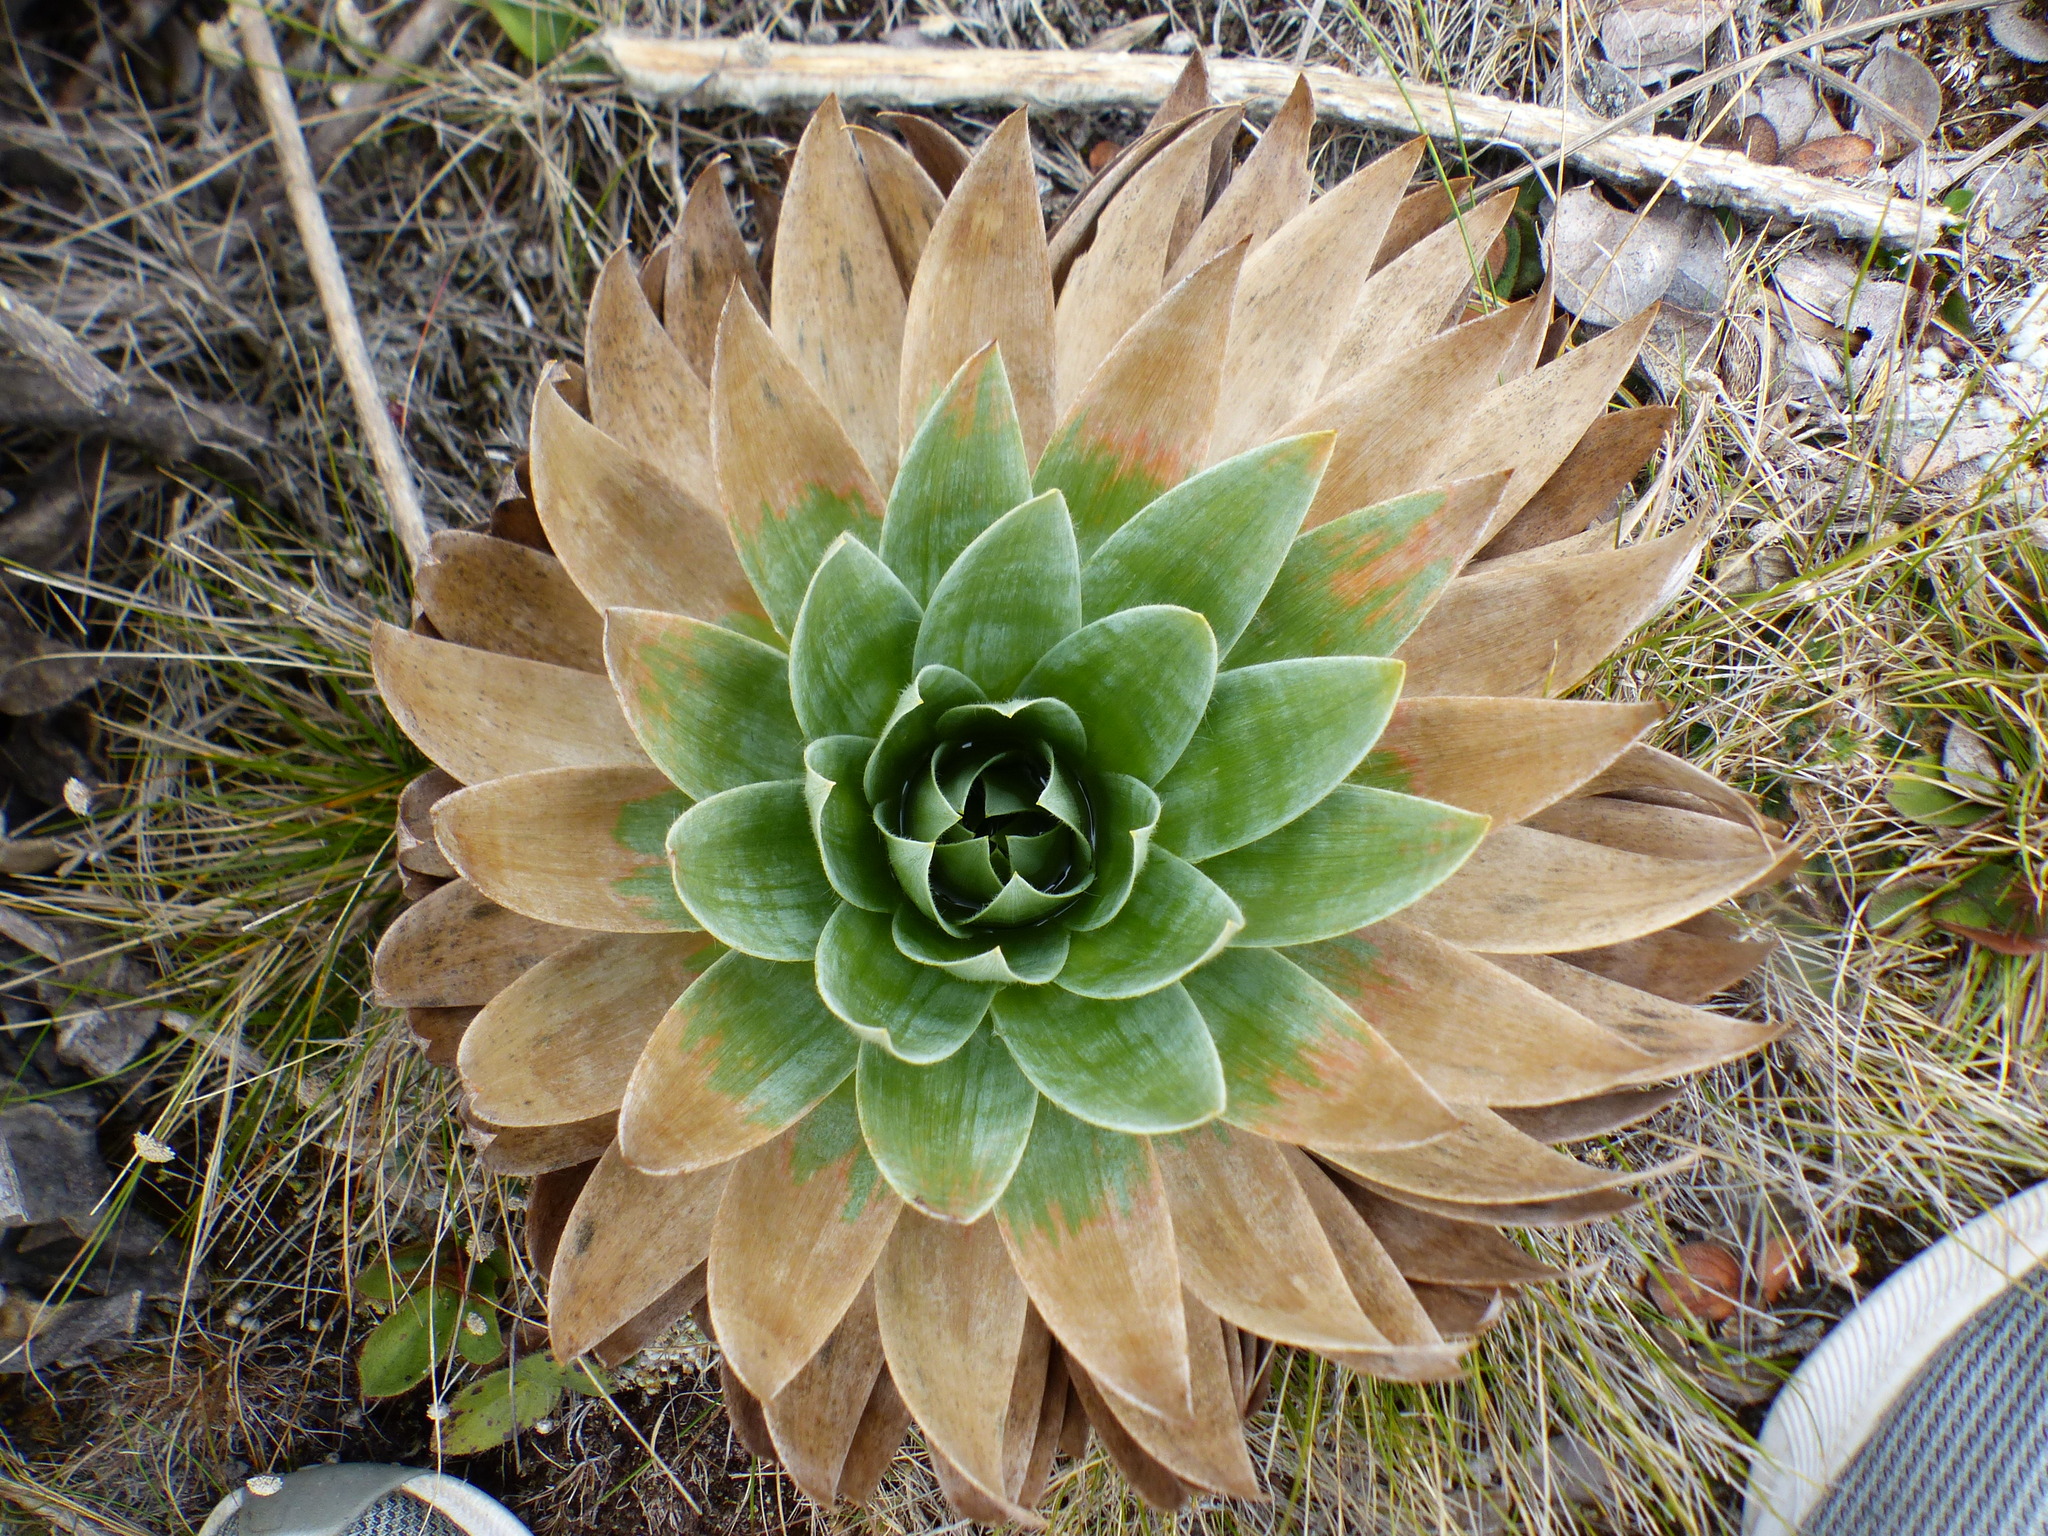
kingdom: Plantae
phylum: Tracheophyta
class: Liliopsida
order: Poales
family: Eriocaulaceae
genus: Paepalanthus
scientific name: Paepalanthus alpinus
